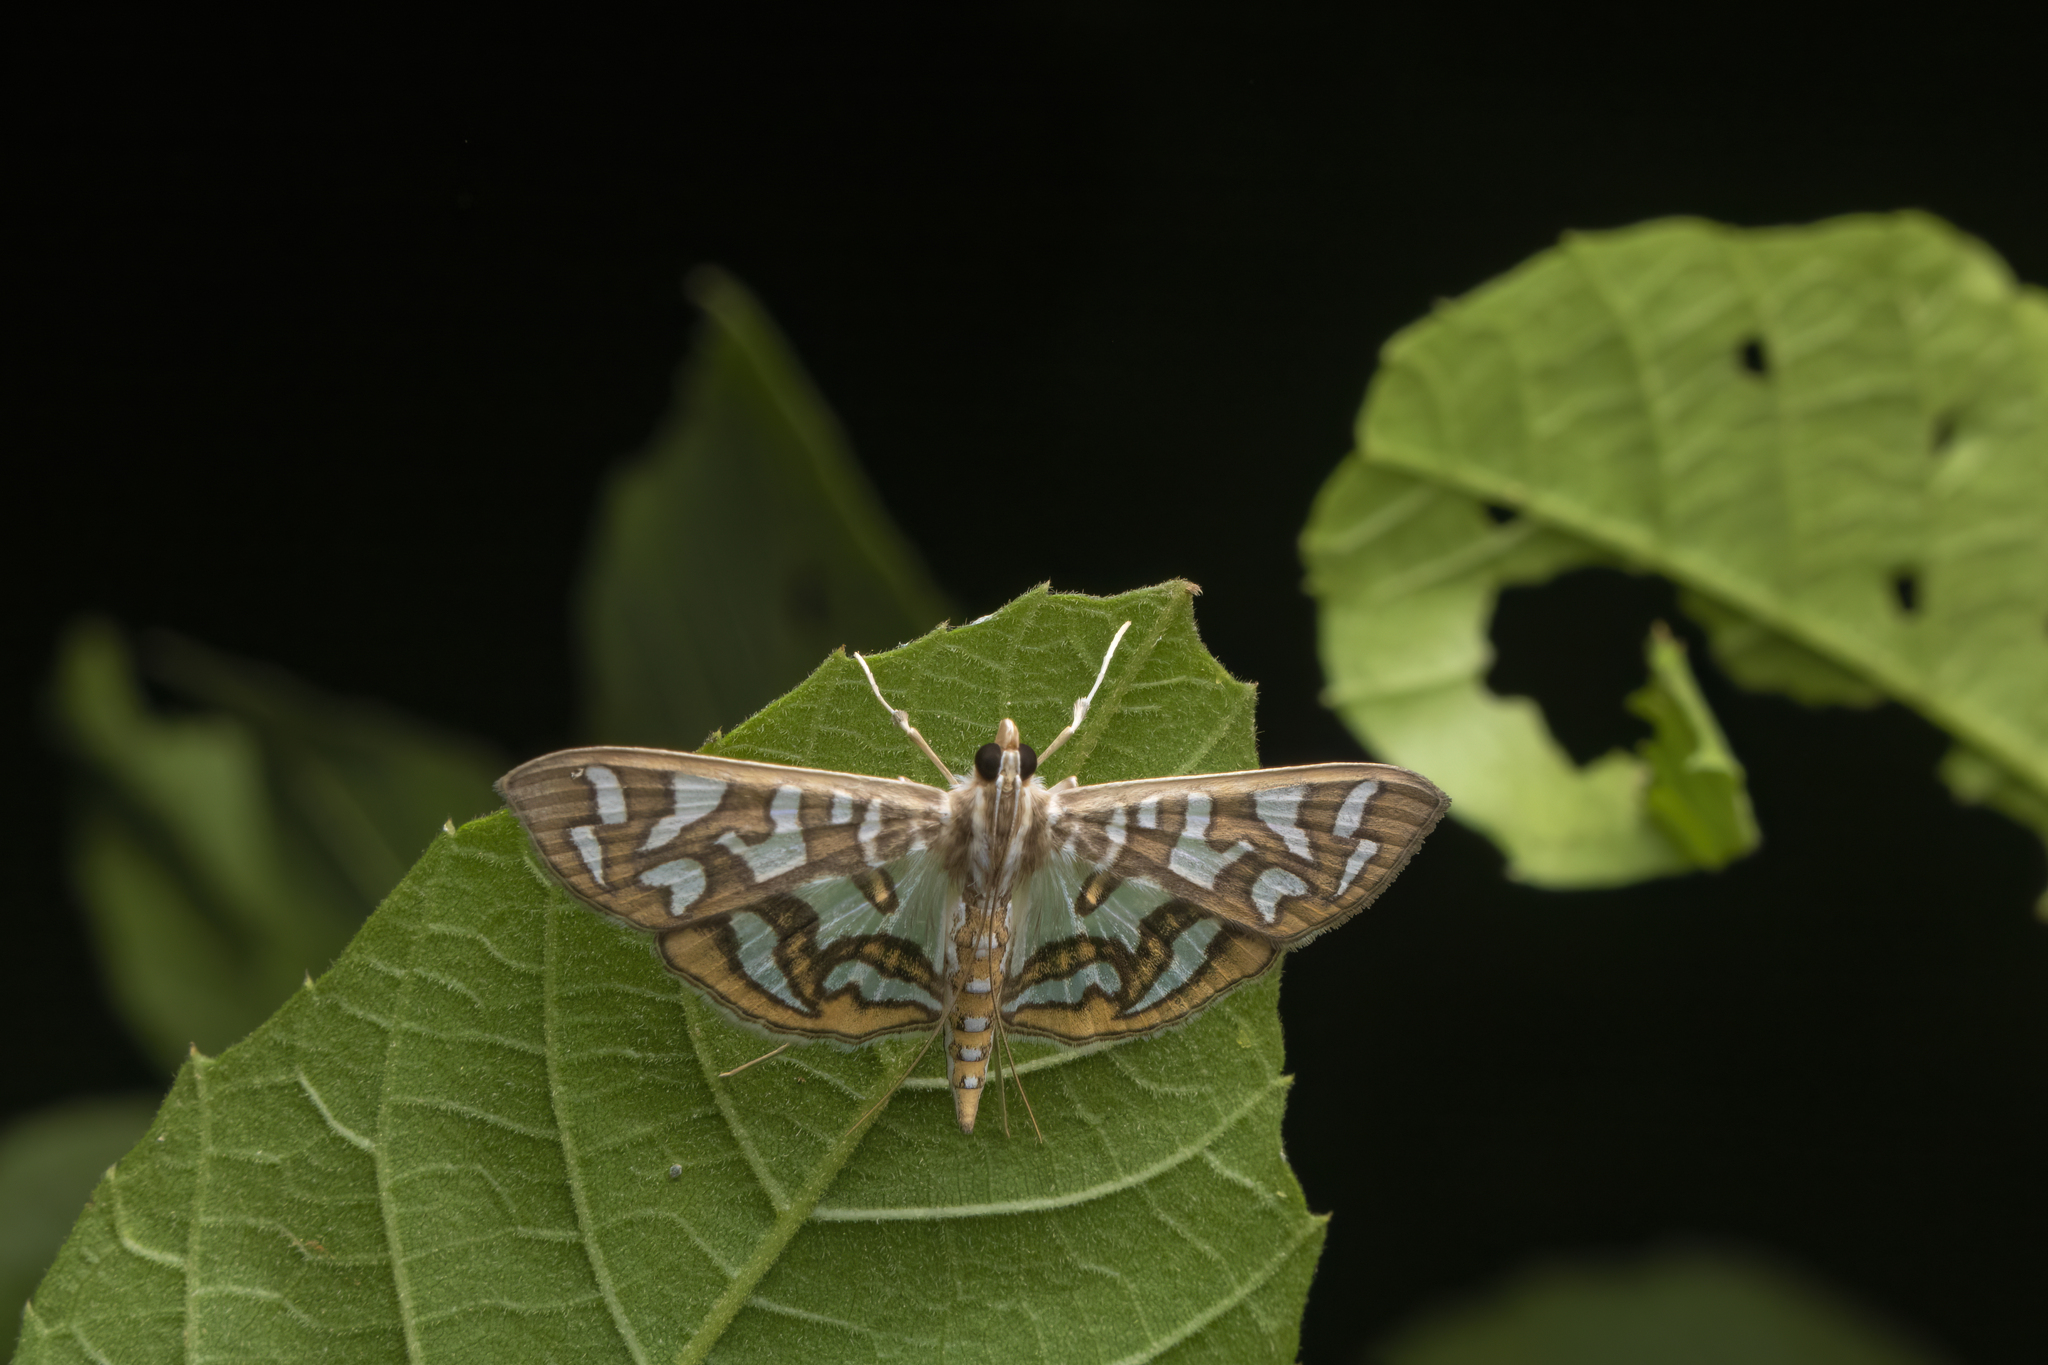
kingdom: Animalia
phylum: Arthropoda
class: Insecta
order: Lepidoptera
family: Crambidae
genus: Nausinoe
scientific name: Nausinoe perspectata
